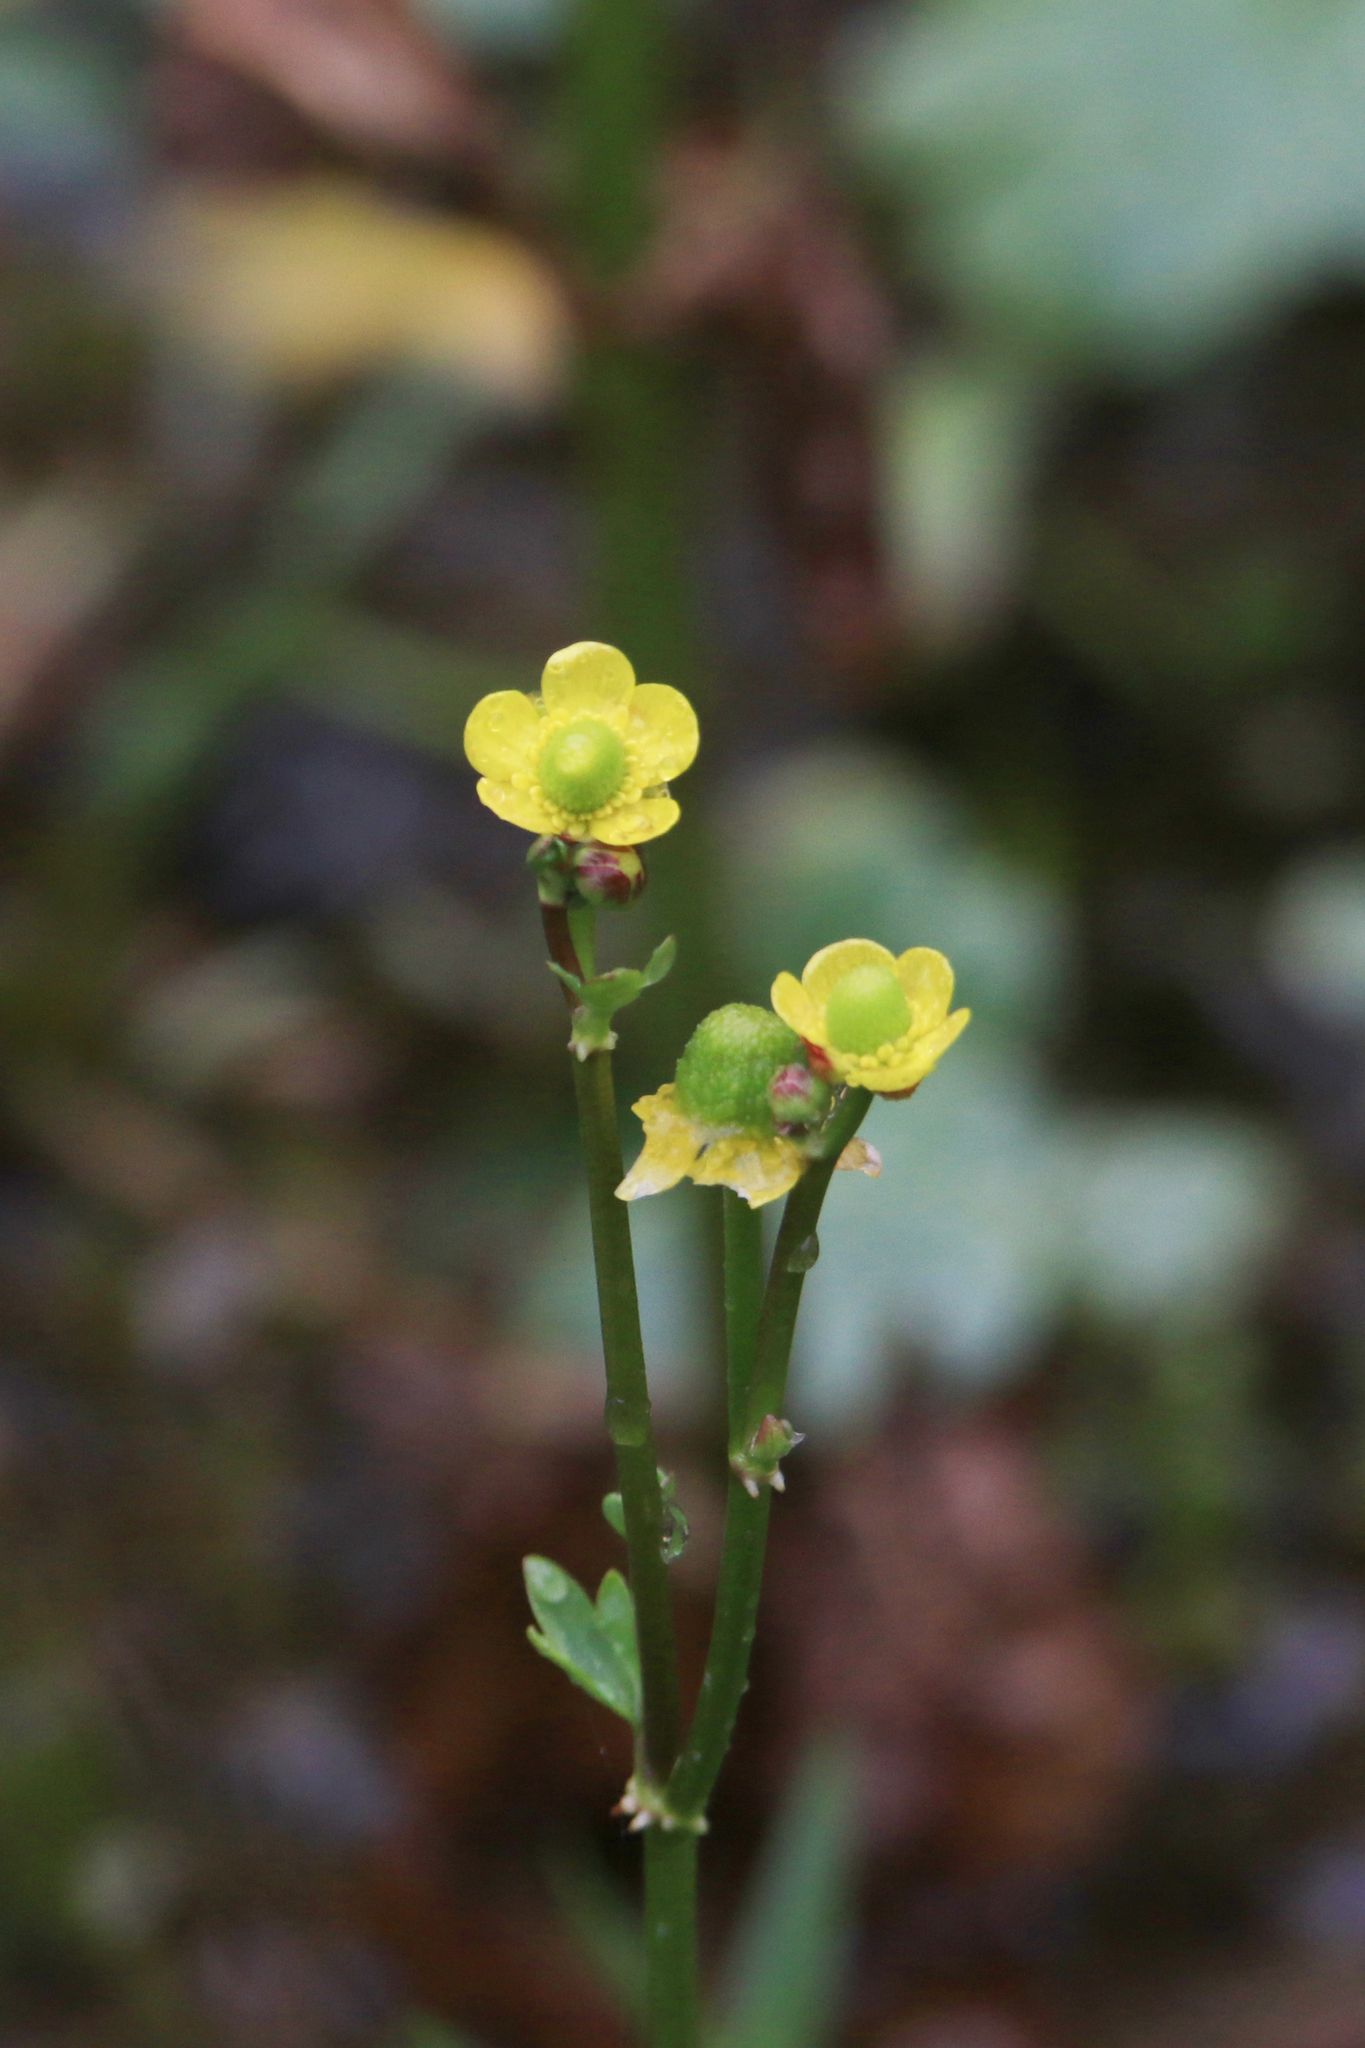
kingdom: Plantae
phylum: Tracheophyta
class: Magnoliopsida
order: Ranunculales
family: Ranunculaceae
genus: Ranunculus
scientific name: Ranunculus sceleratus
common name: Celery-leaved buttercup
